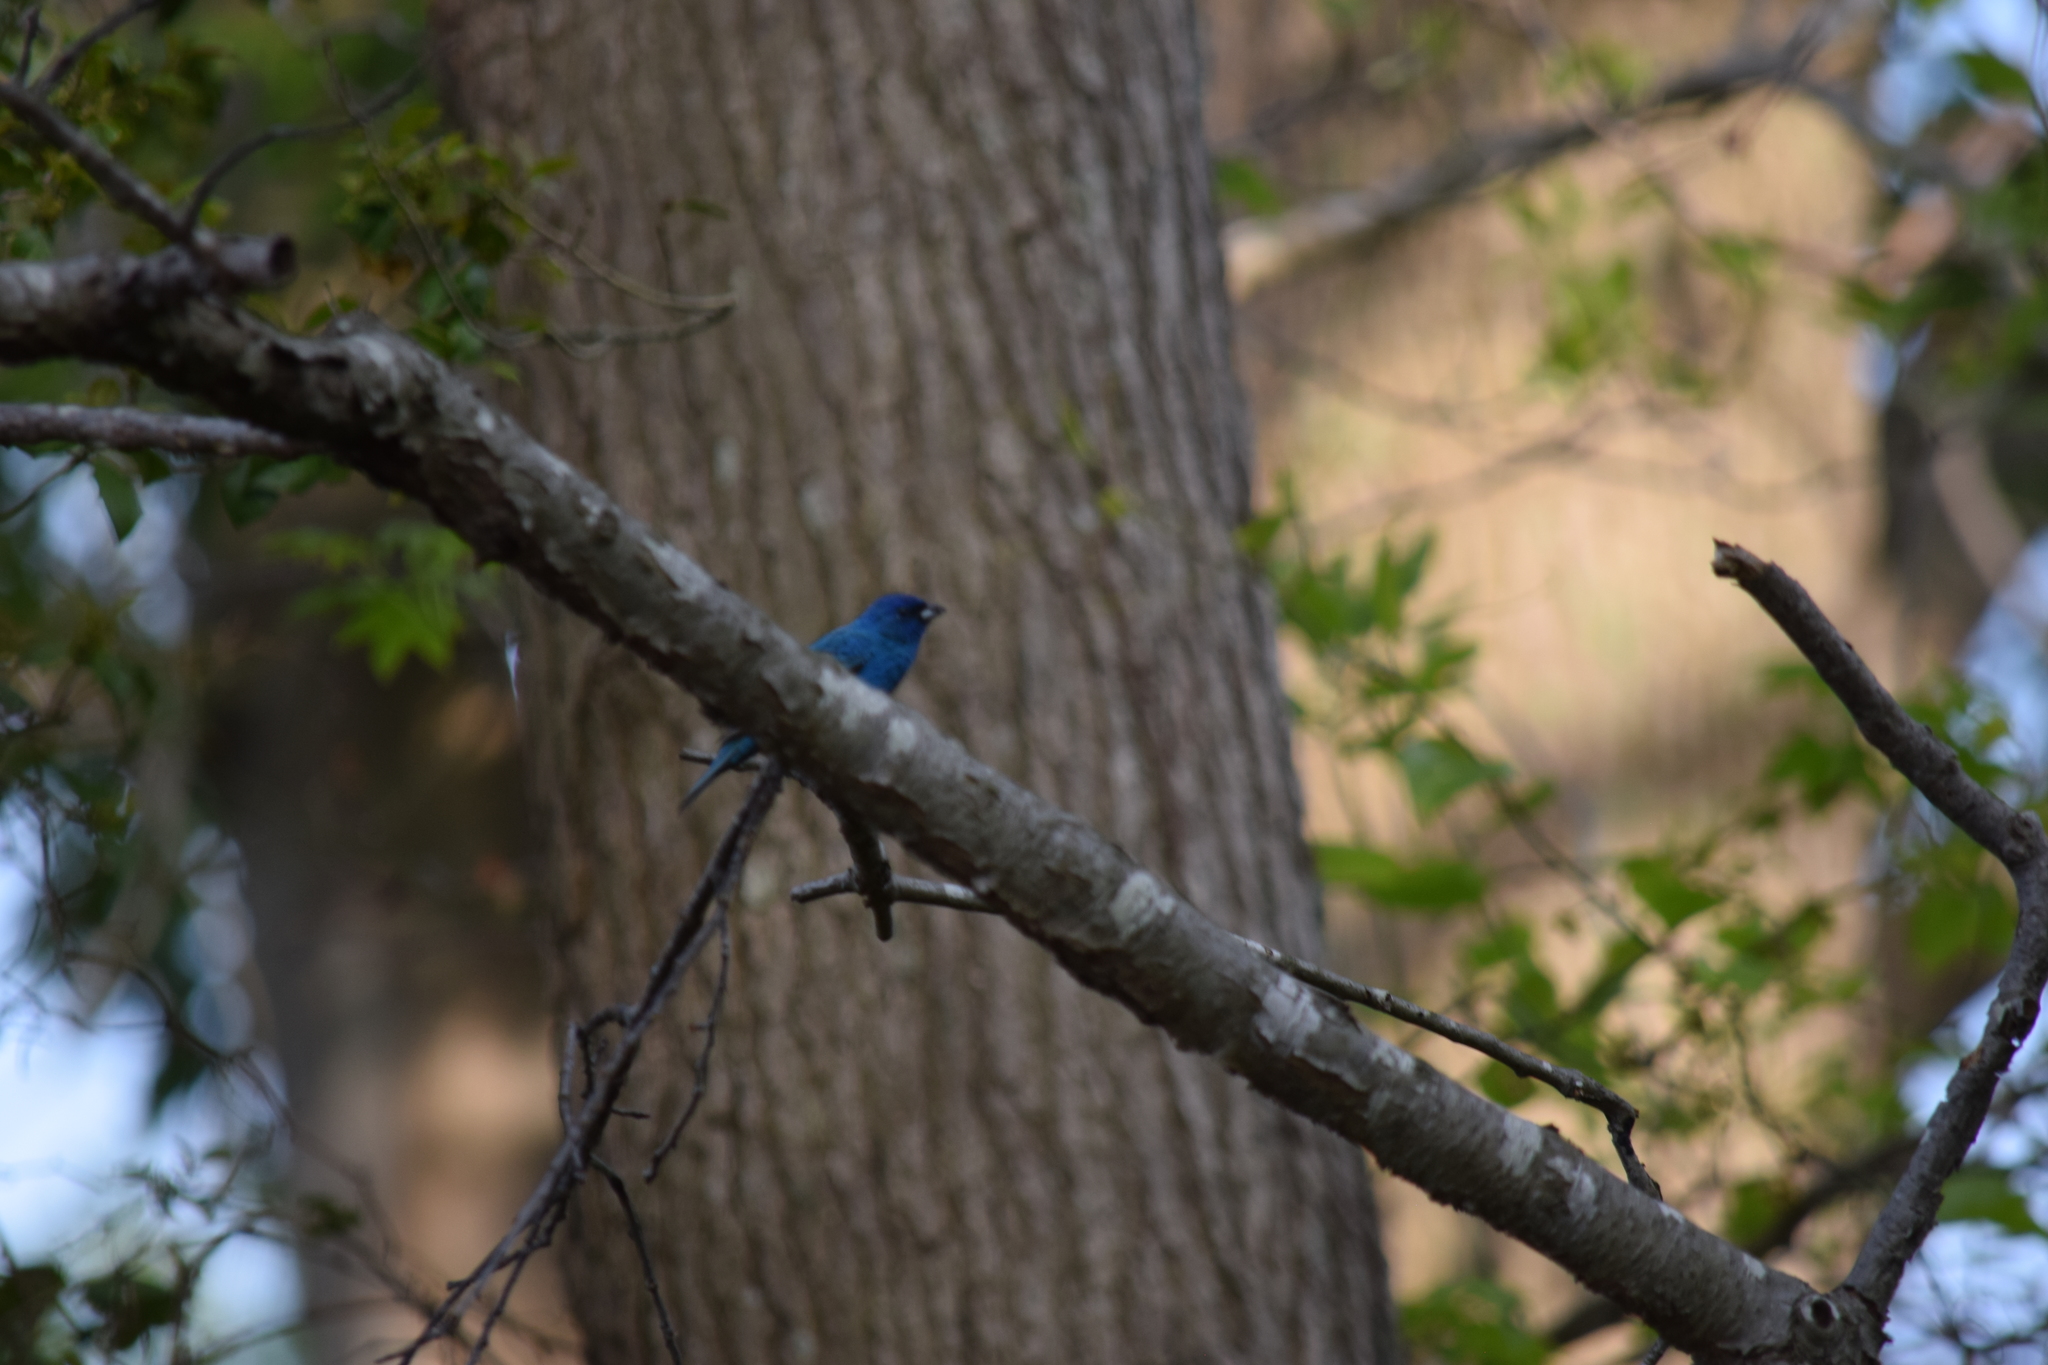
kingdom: Animalia
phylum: Chordata
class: Aves
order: Passeriformes
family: Cardinalidae
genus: Passerina
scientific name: Passerina cyanea
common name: Indigo bunting
